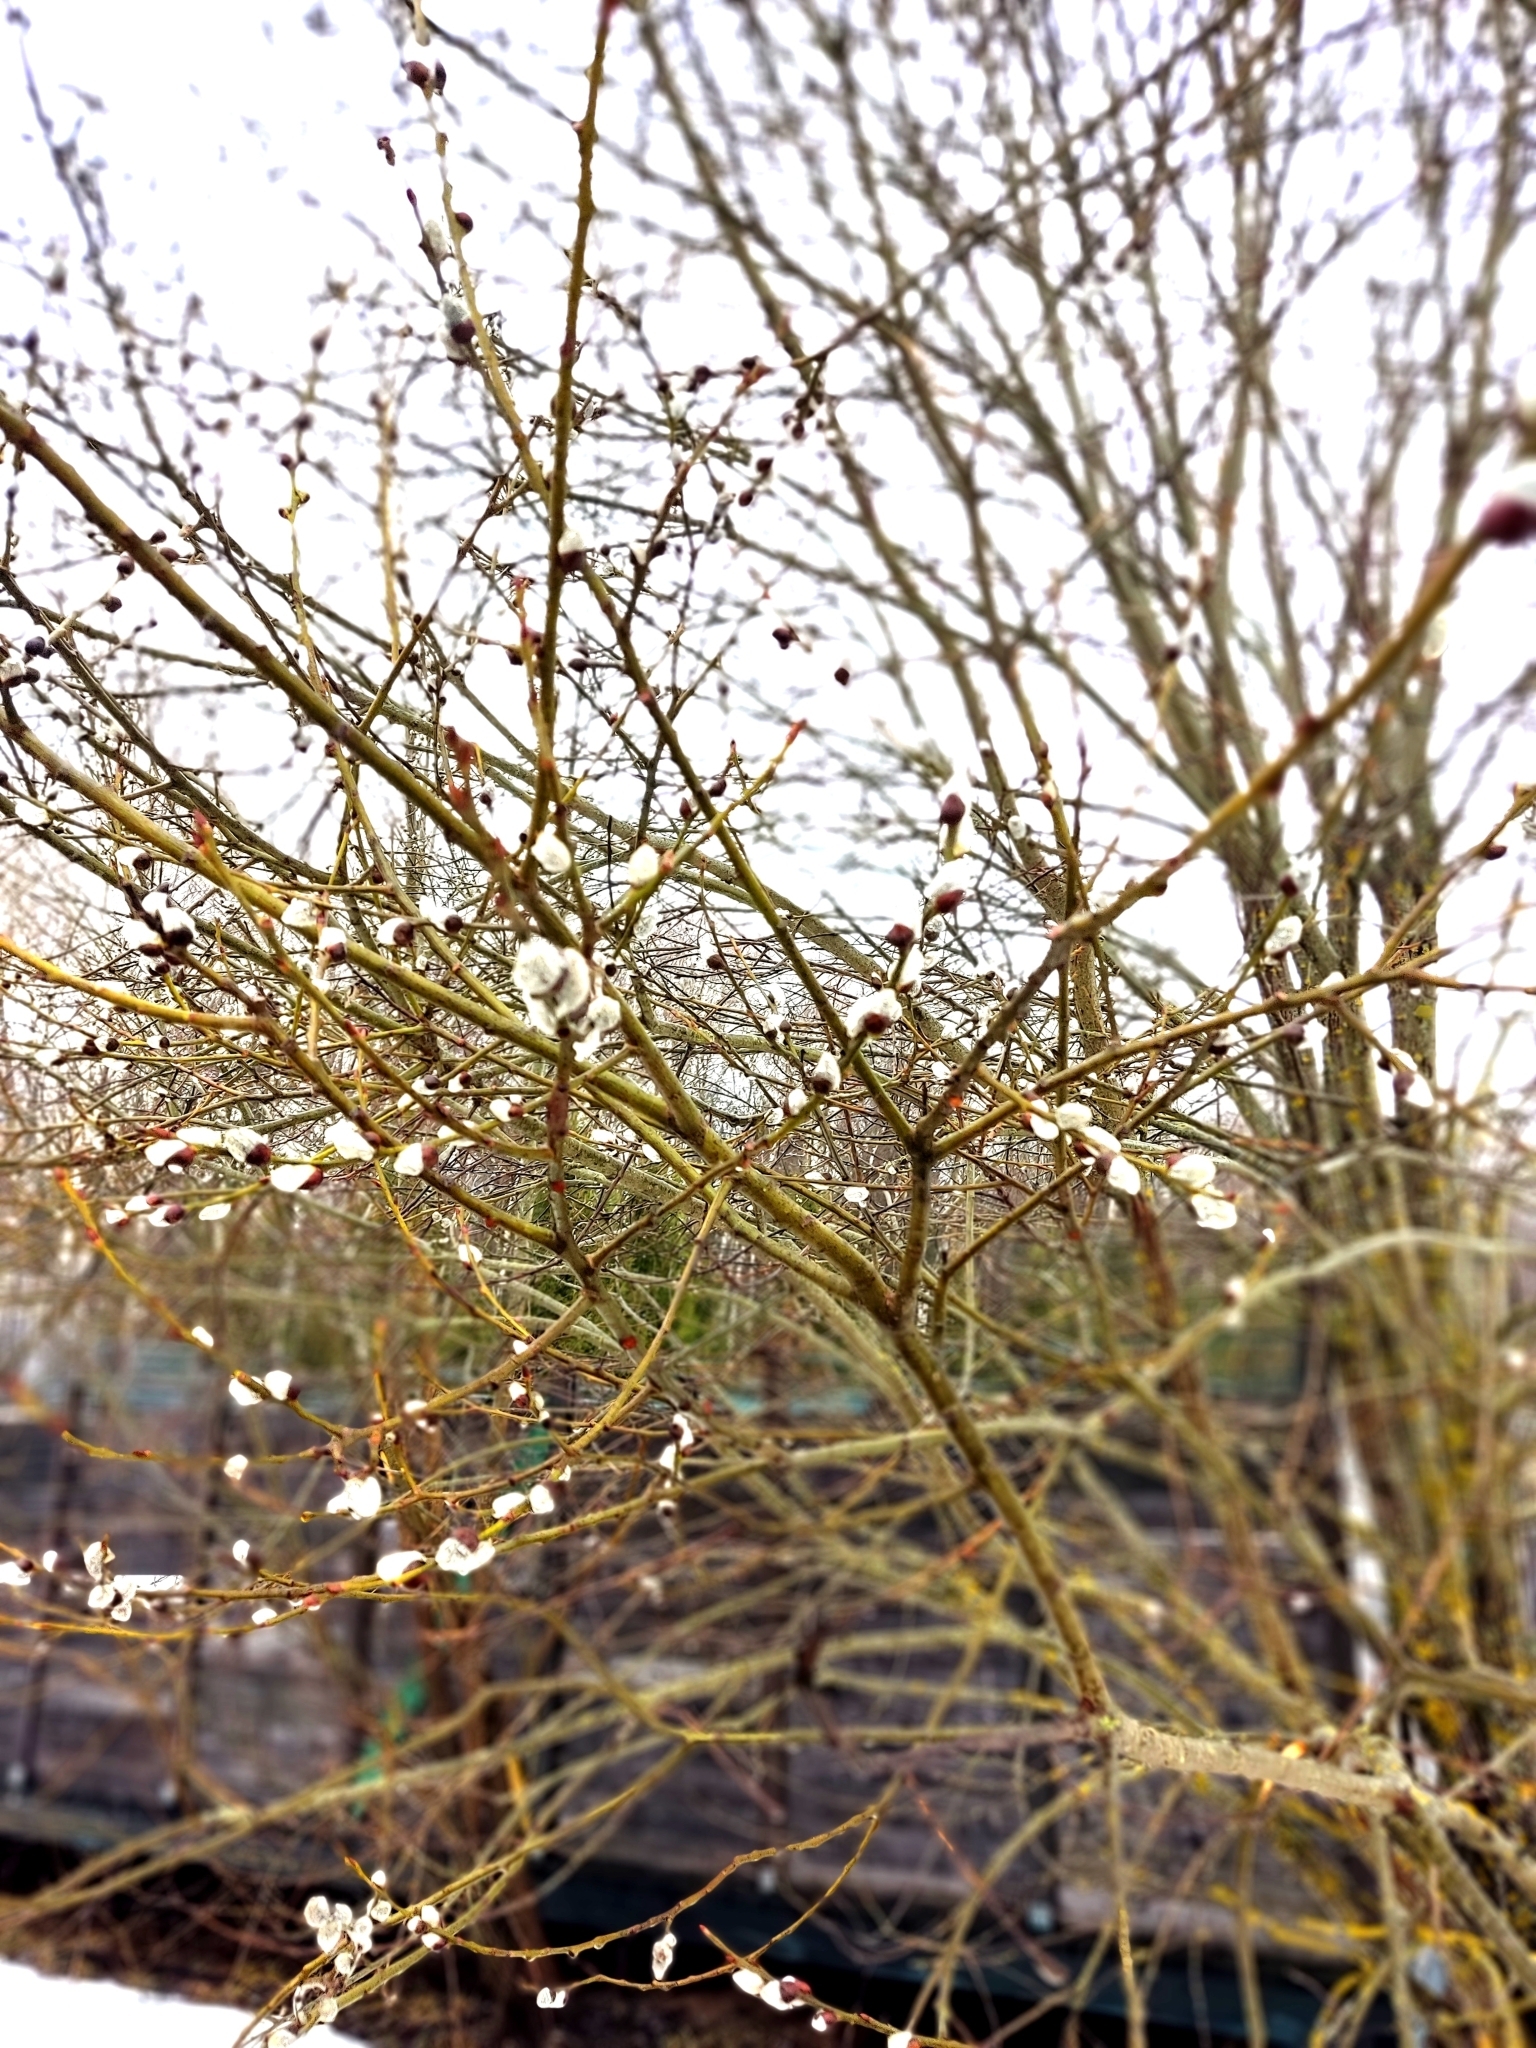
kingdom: Plantae
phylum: Tracheophyta
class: Magnoliopsida
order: Malpighiales
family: Salicaceae
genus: Salix
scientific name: Salix caprea
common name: Goat willow
